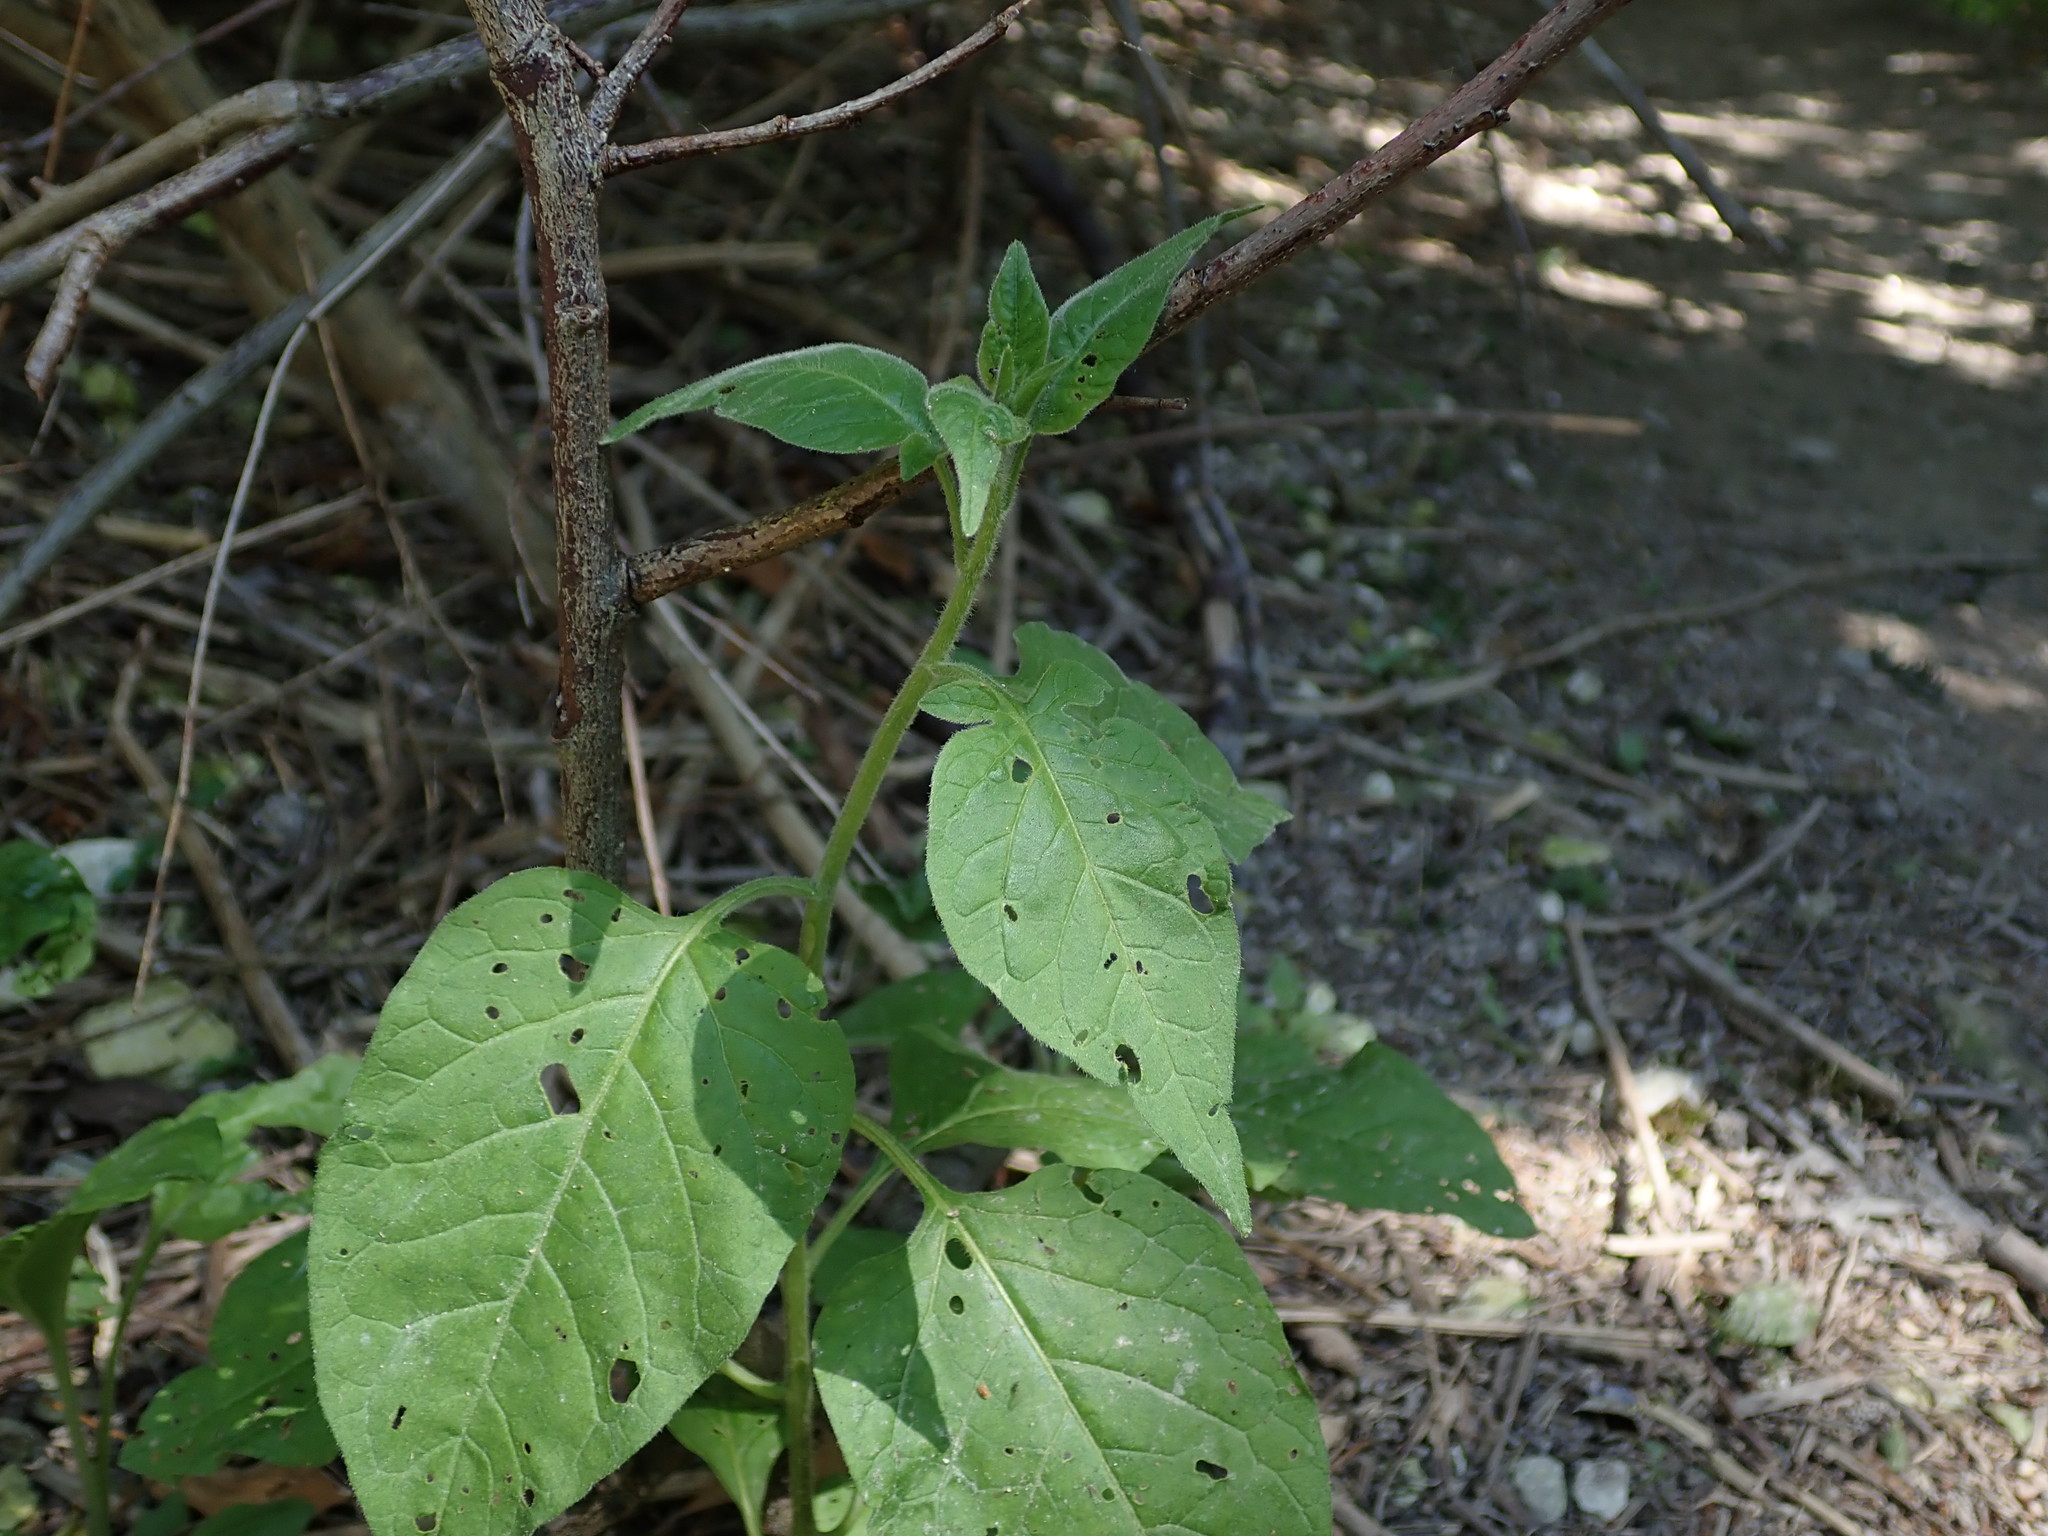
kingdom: Plantae
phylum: Tracheophyta
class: Magnoliopsida
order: Solanales
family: Solanaceae
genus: Solanum
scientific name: Solanum dulcamara
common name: Climbing nightshade
